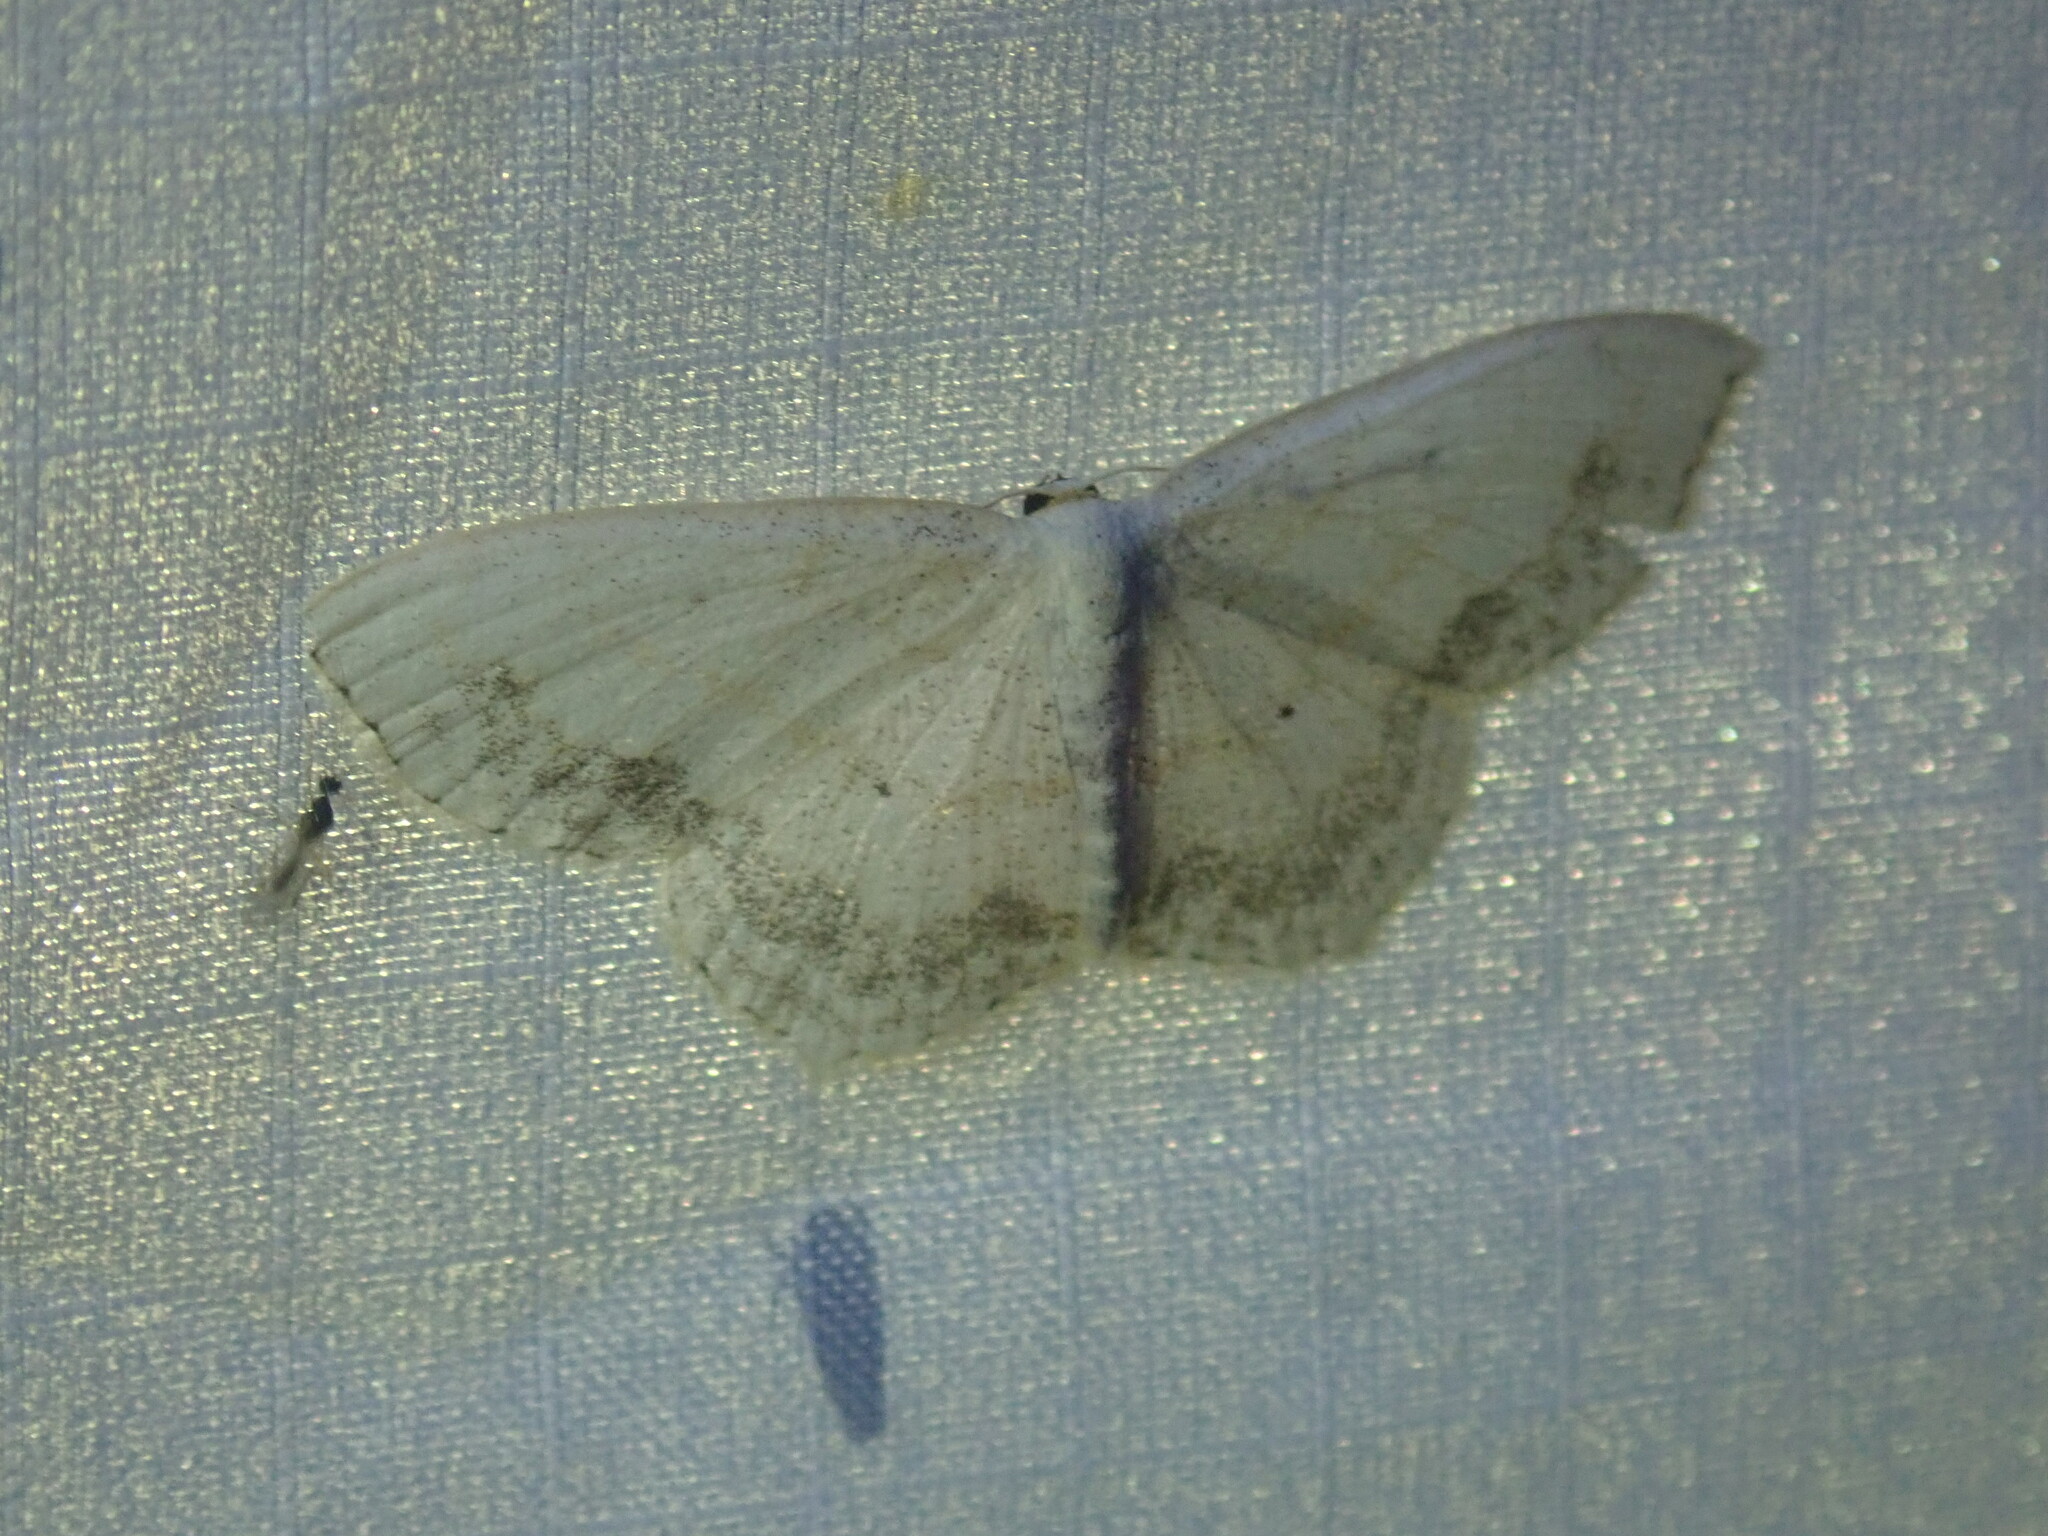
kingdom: Animalia
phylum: Arthropoda
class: Insecta
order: Lepidoptera
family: Geometridae
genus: Scopula
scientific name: Scopula limboundata
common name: Large lace border
